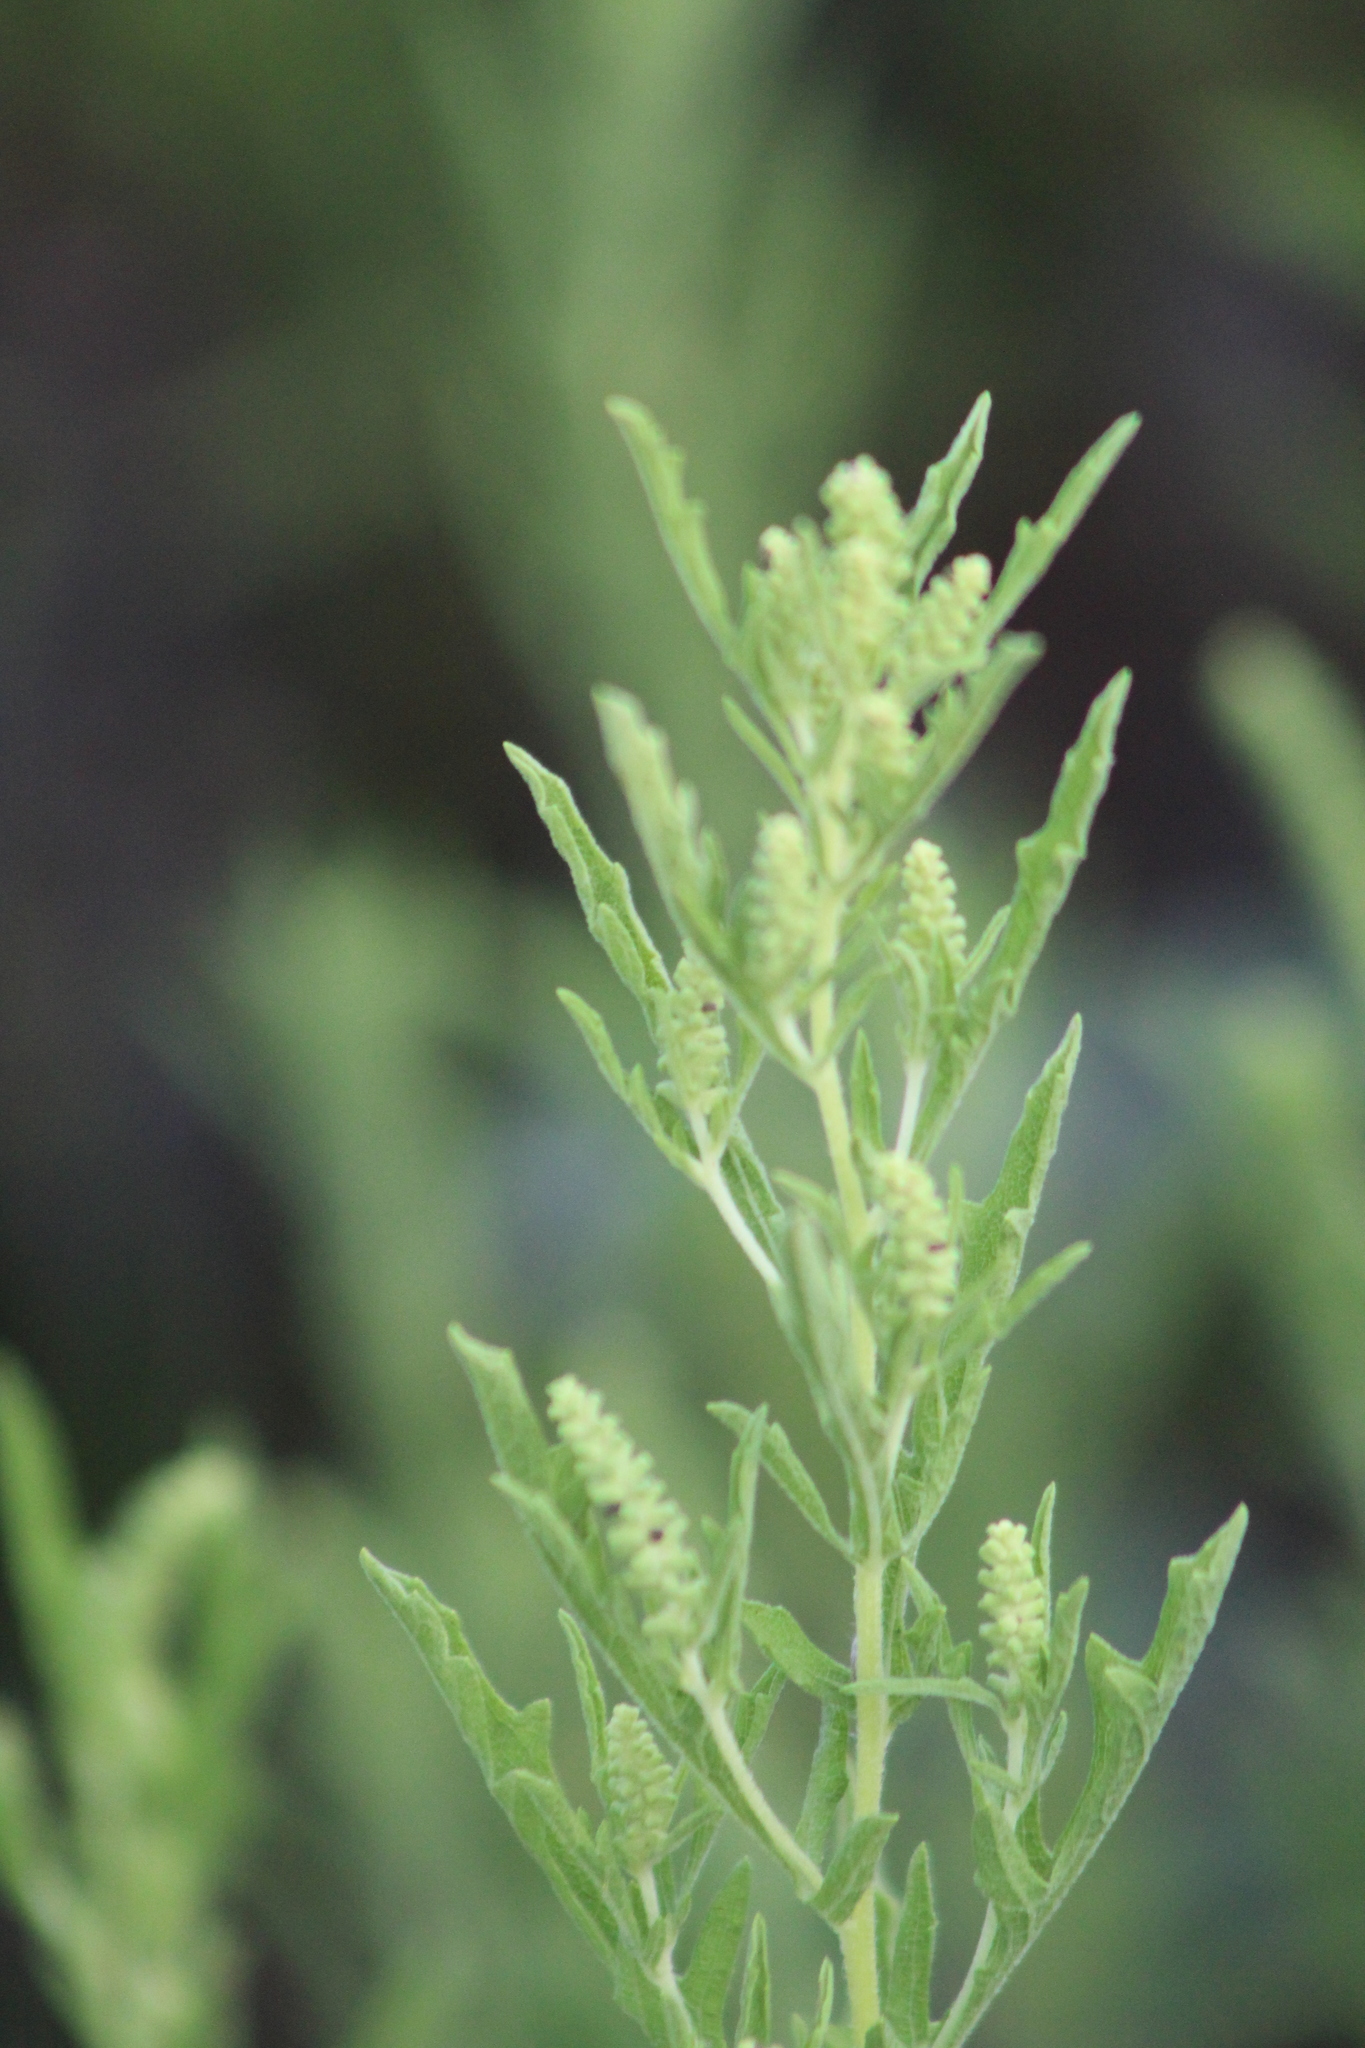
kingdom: Plantae
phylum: Tracheophyta
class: Magnoliopsida
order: Asterales
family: Asteraceae
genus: Ambrosia
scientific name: Ambrosia psilostachya
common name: Perennial ragweed
